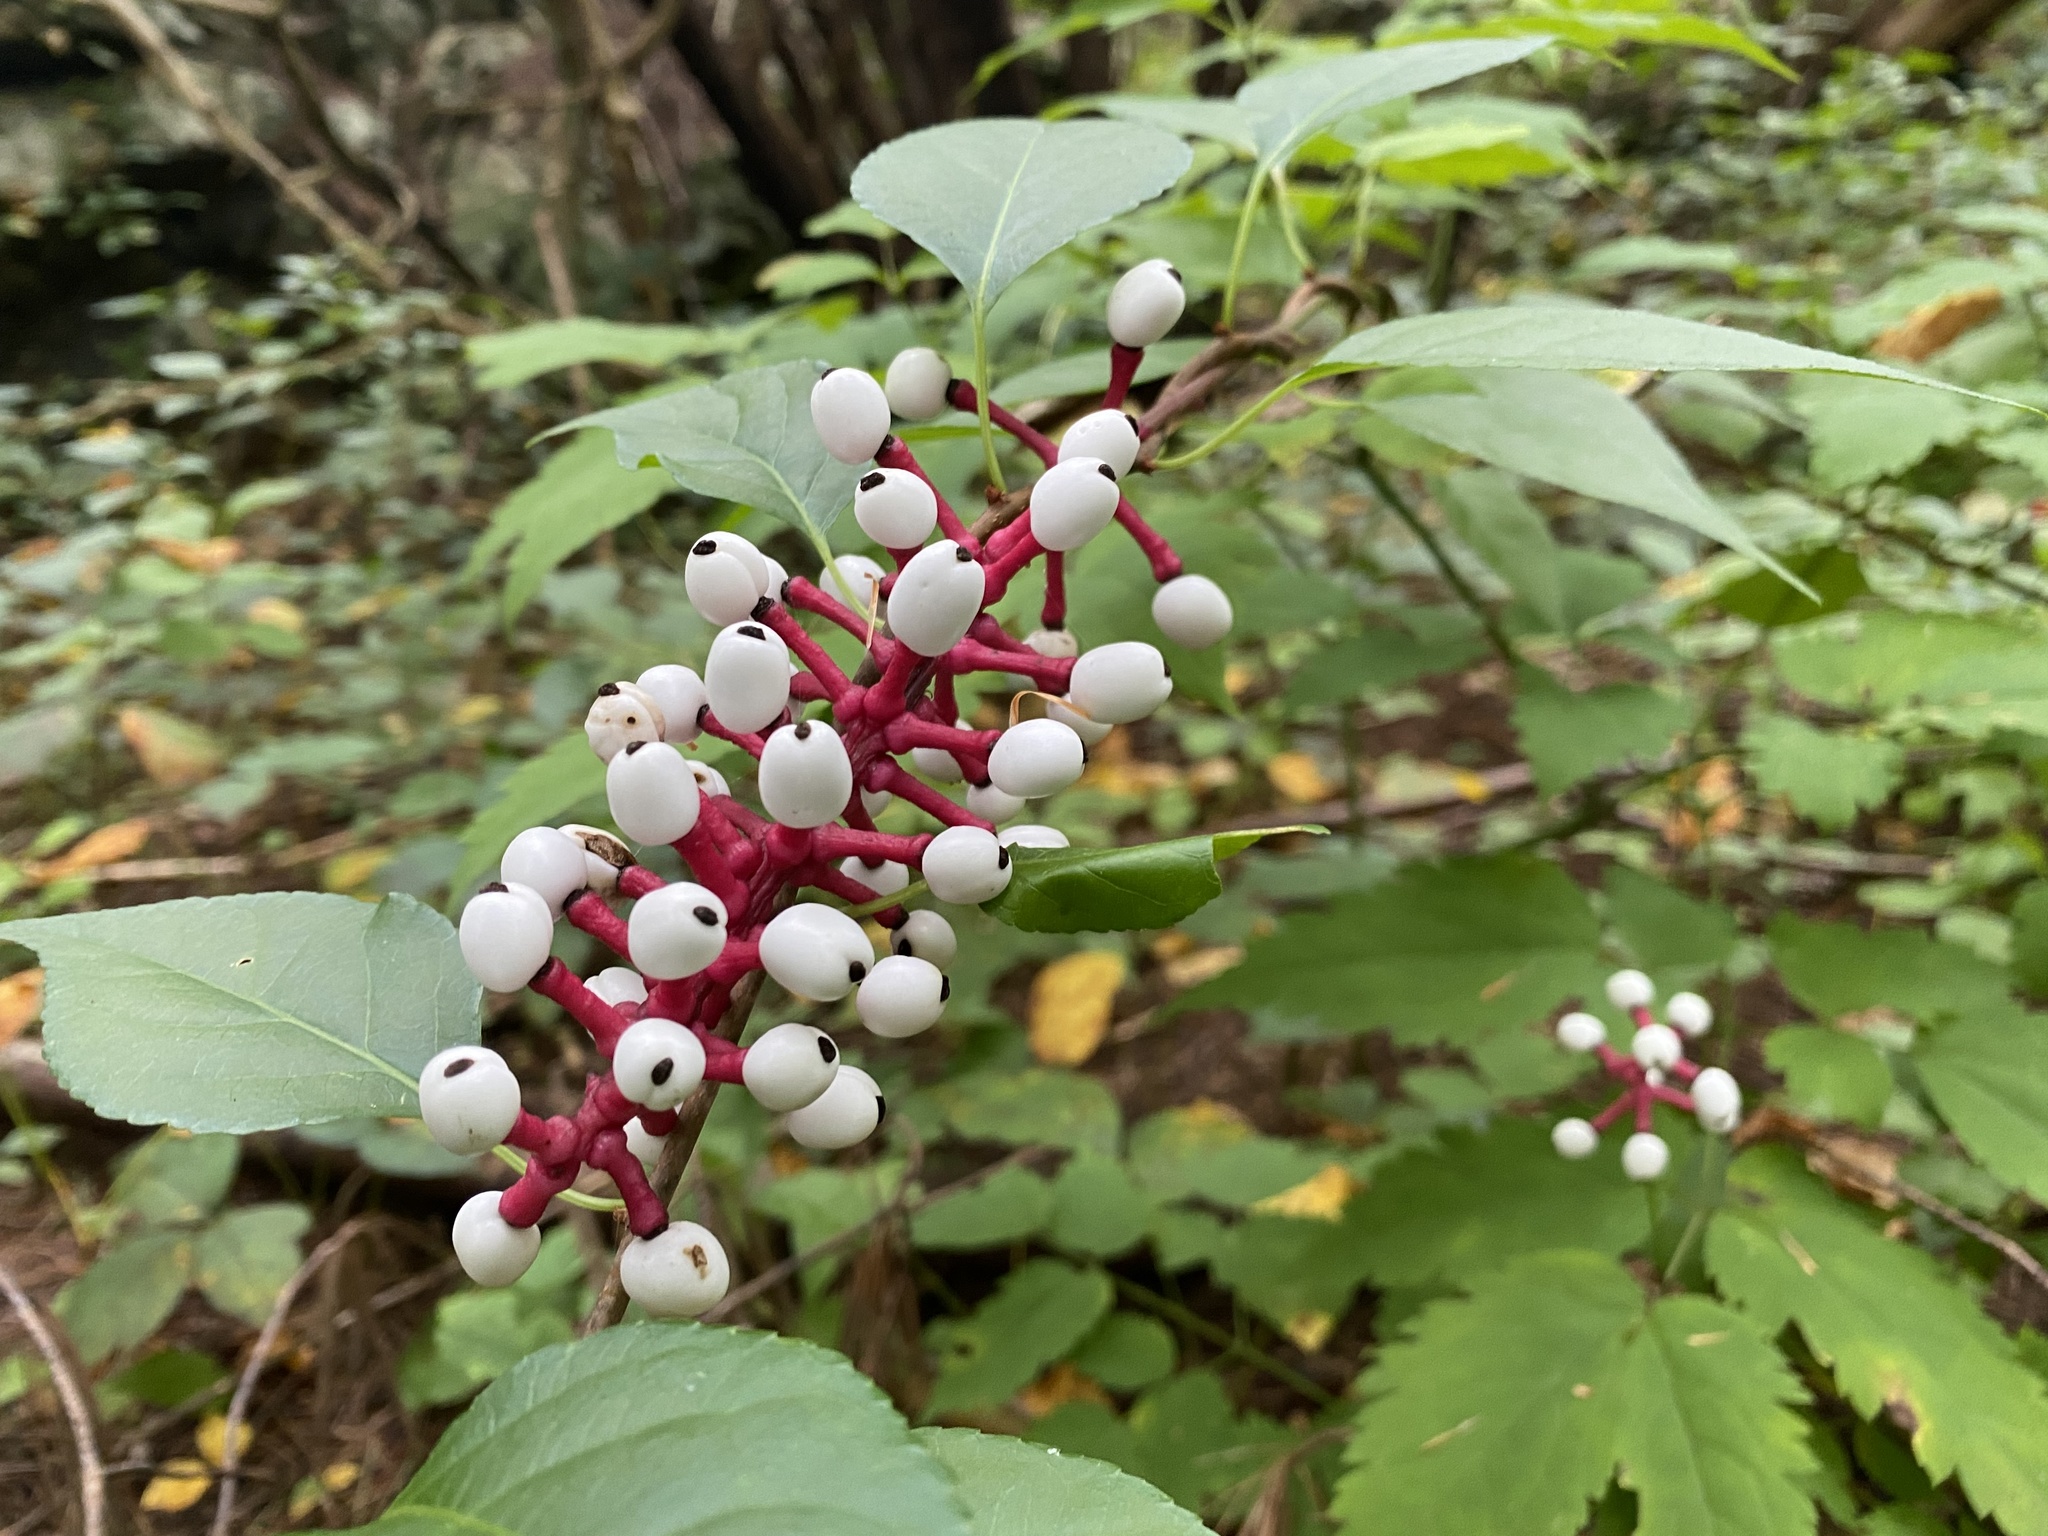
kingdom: Plantae
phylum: Tracheophyta
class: Magnoliopsida
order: Ranunculales
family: Ranunculaceae
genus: Actaea
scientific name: Actaea pachypoda
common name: Doll's-eyes
